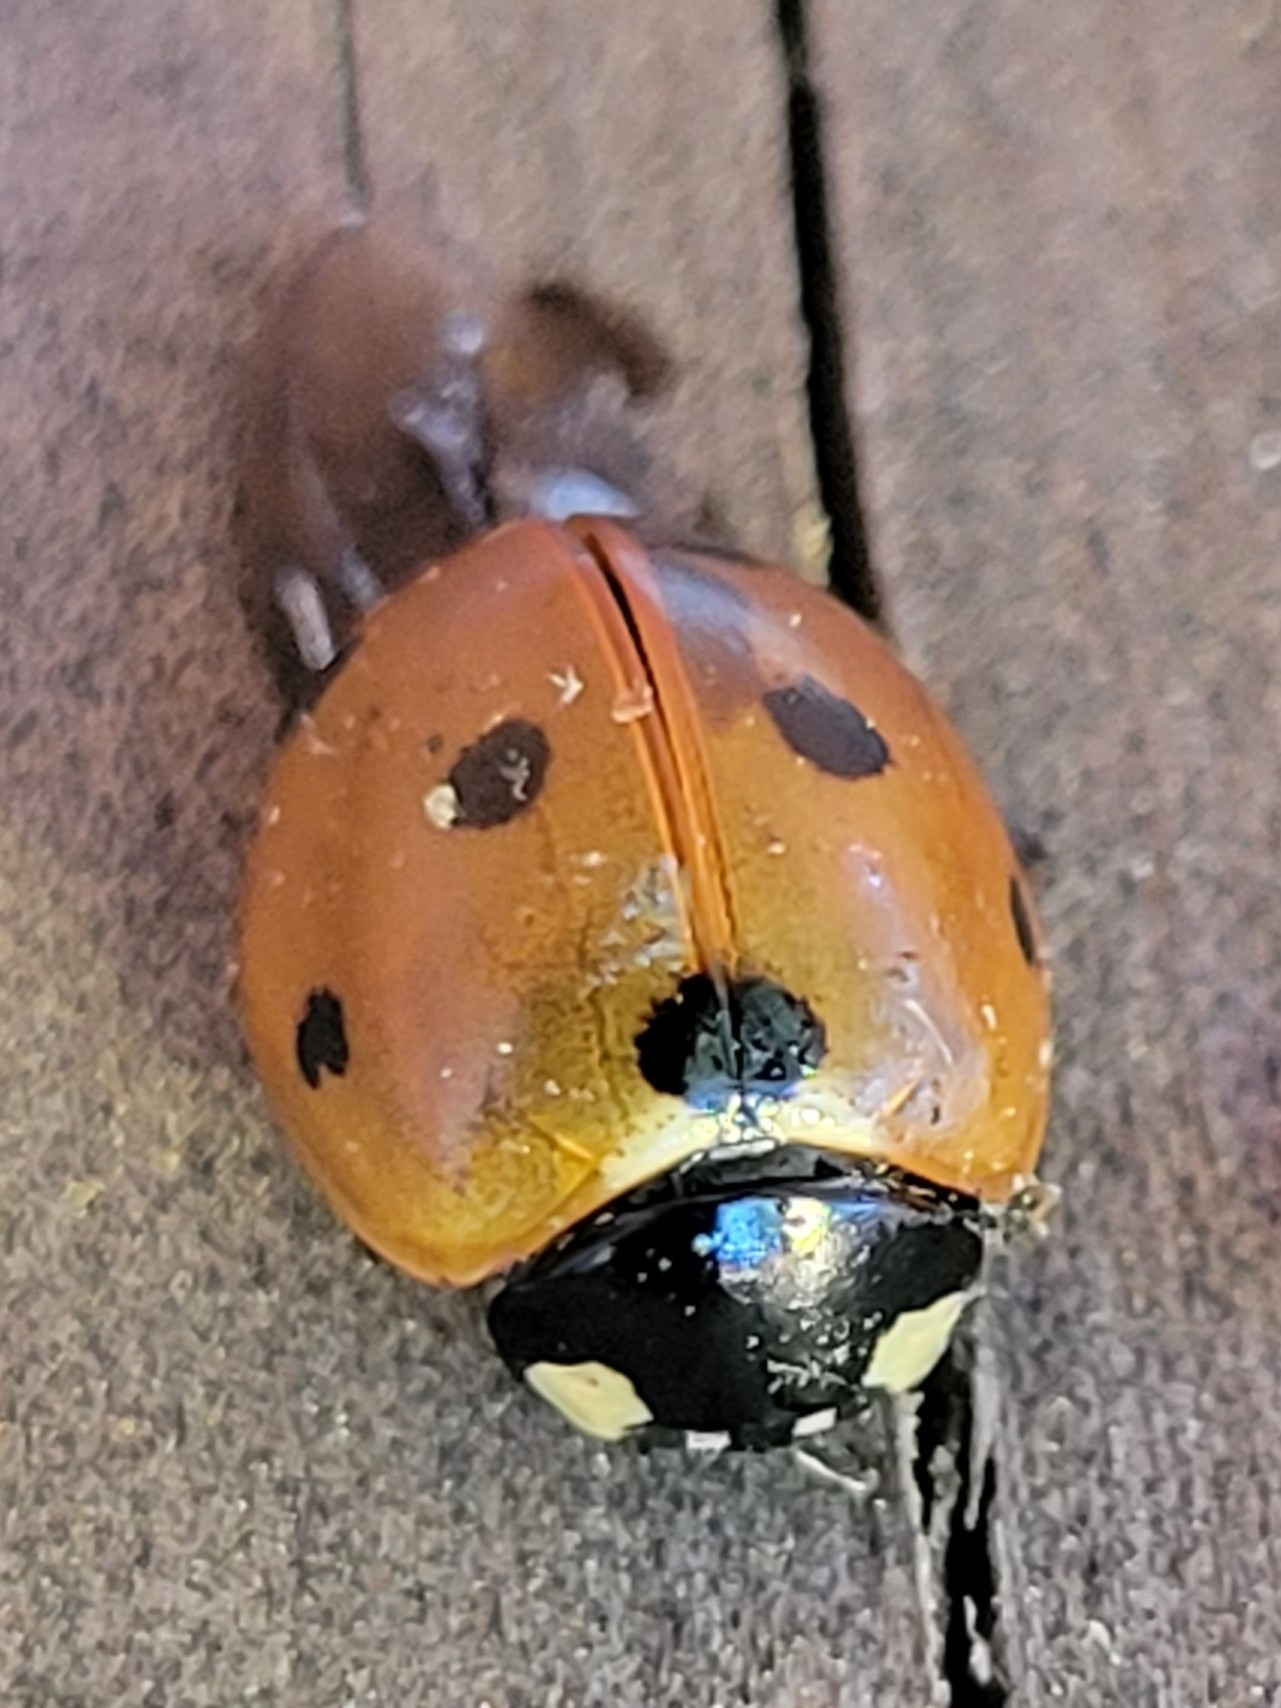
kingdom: Animalia
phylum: Arthropoda
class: Insecta
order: Coleoptera
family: Coccinellidae
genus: Coccinella
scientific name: Coccinella septempunctata
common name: Sevenspotted lady beetle
